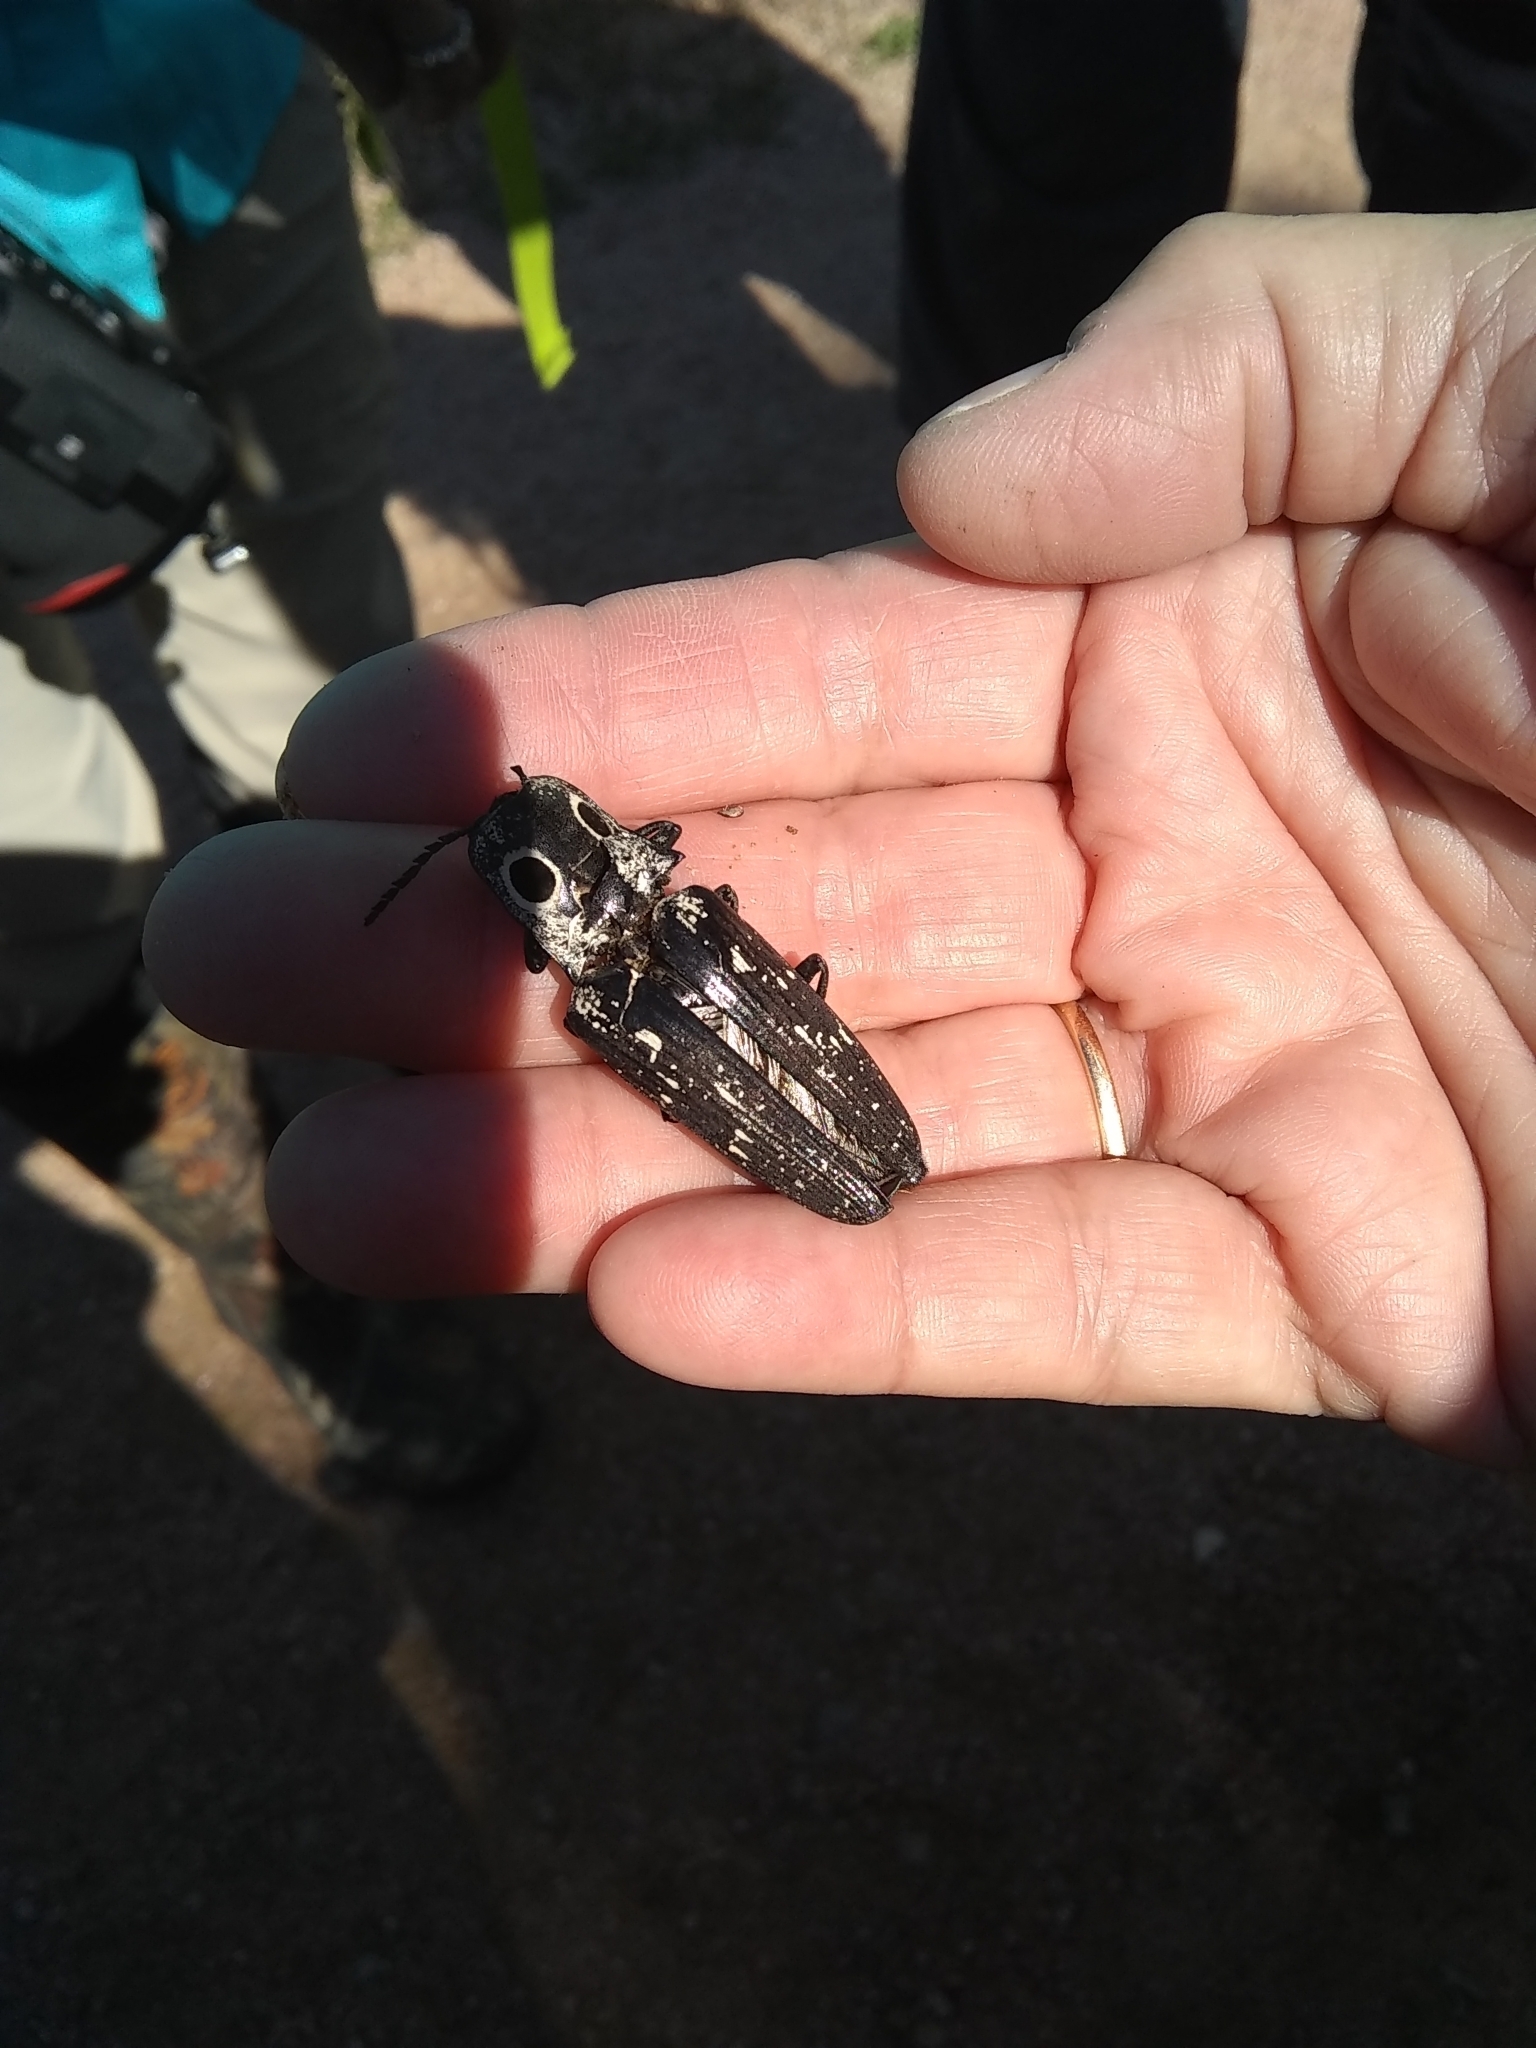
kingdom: Animalia
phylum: Arthropoda
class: Insecta
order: Coleoptera
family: Elateridae
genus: Alaus
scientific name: Alaus
